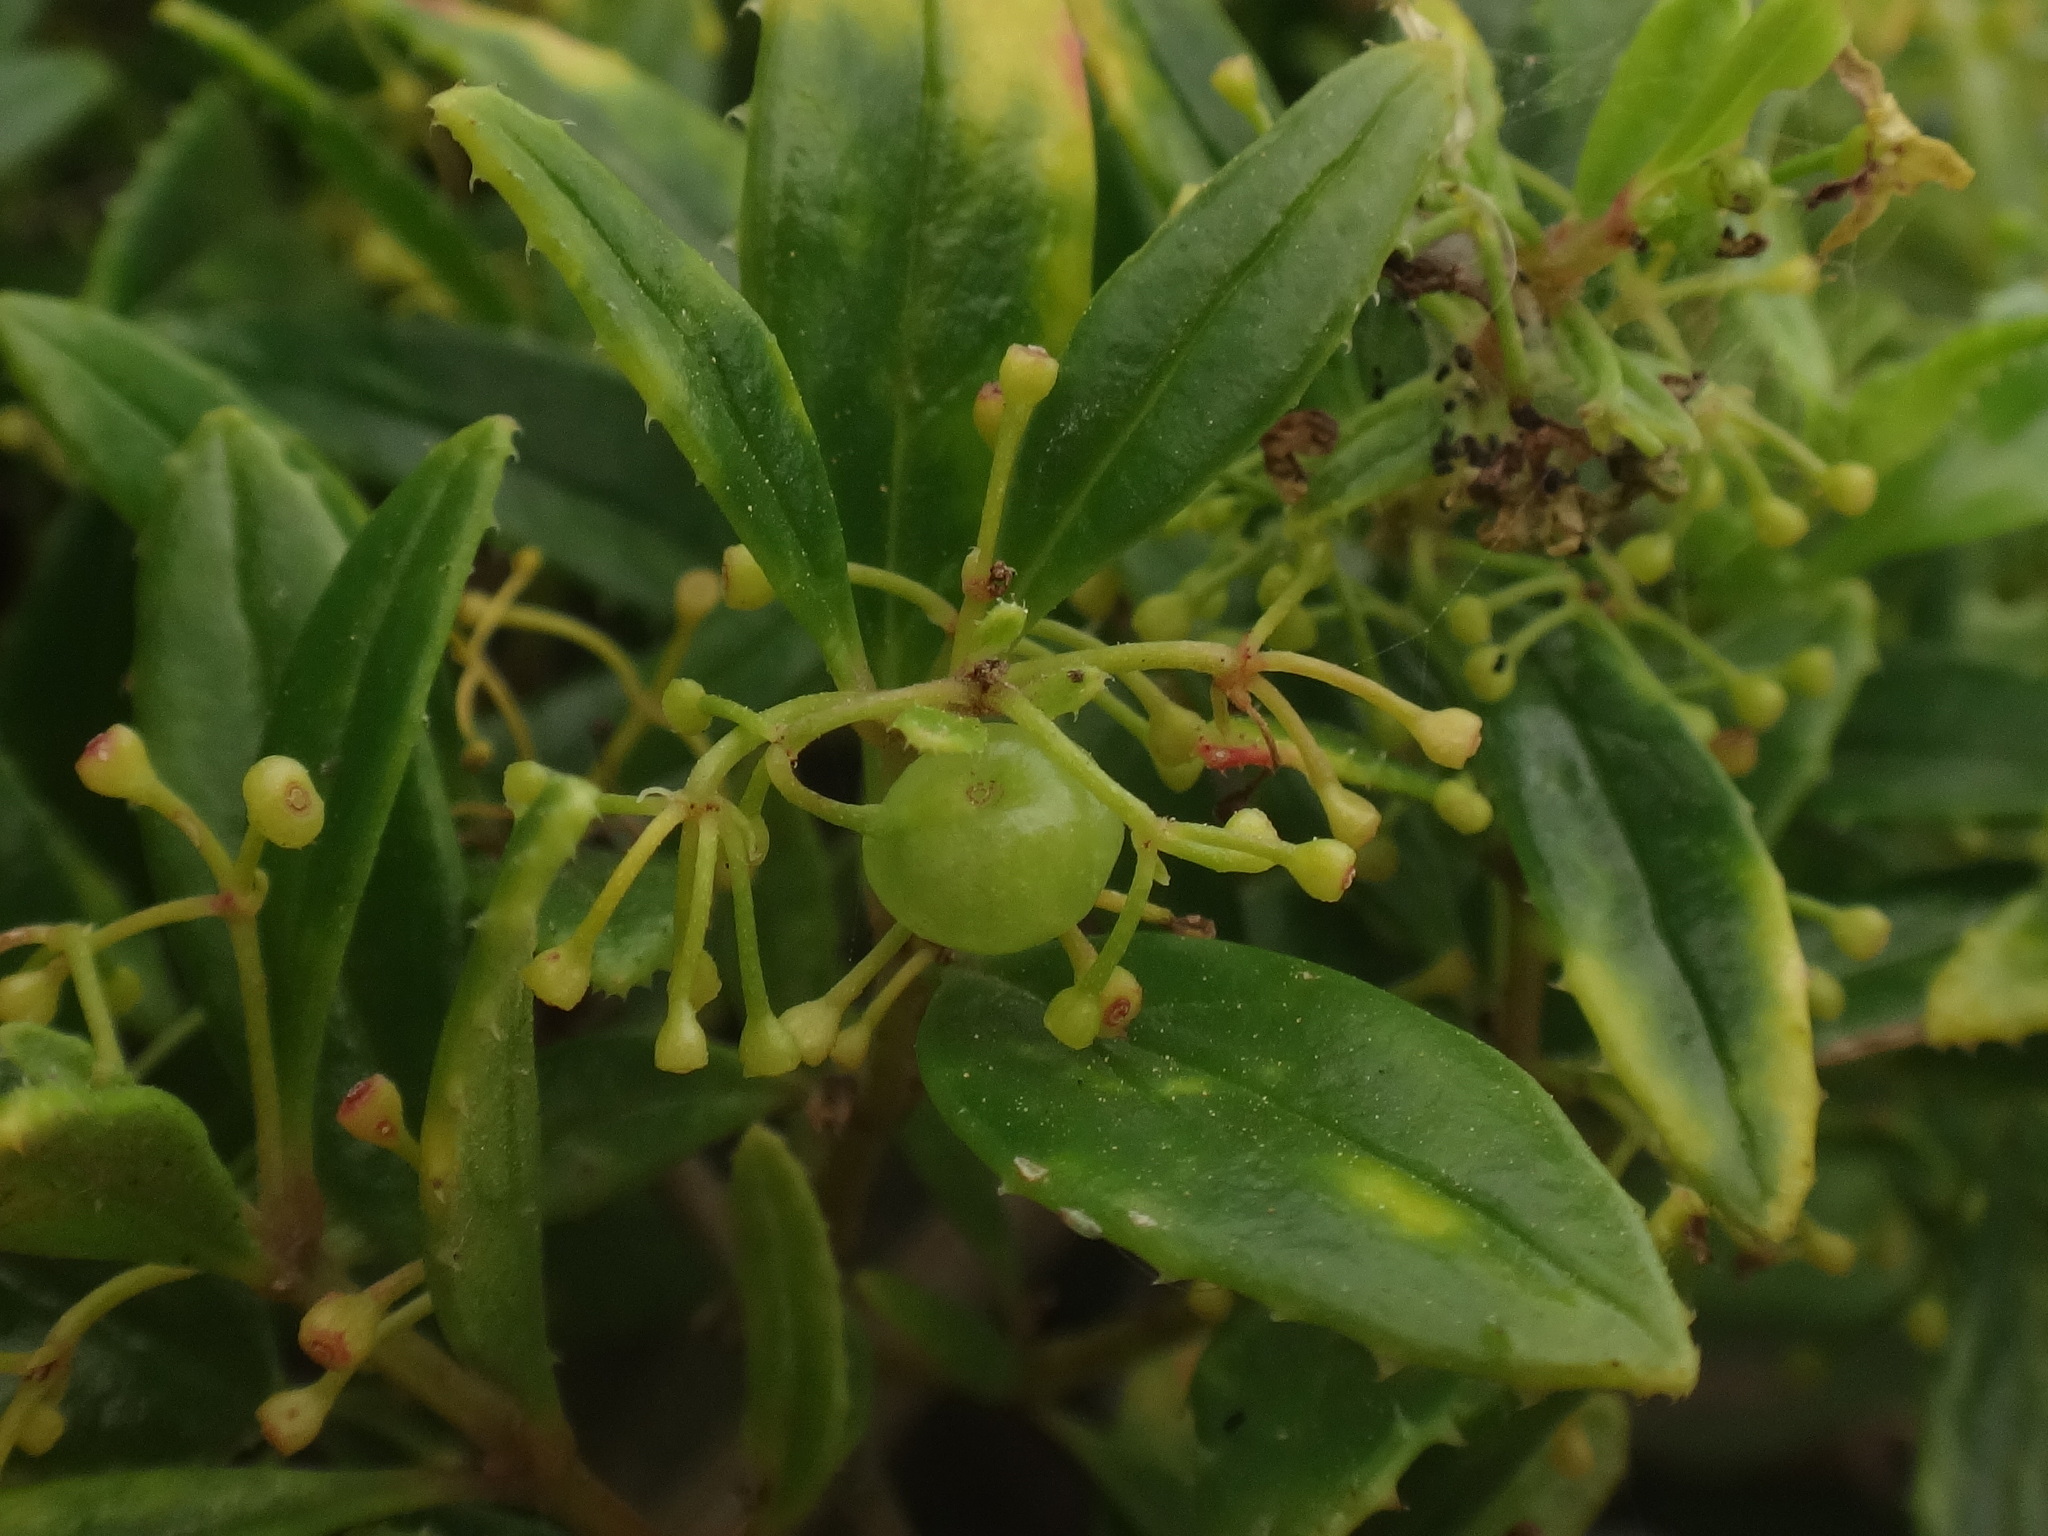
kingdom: Plantae
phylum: Tracheophyta
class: Magnoliopsida
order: Gentianales
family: Rubiaceae
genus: Rubia
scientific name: Rubia fruticosa
